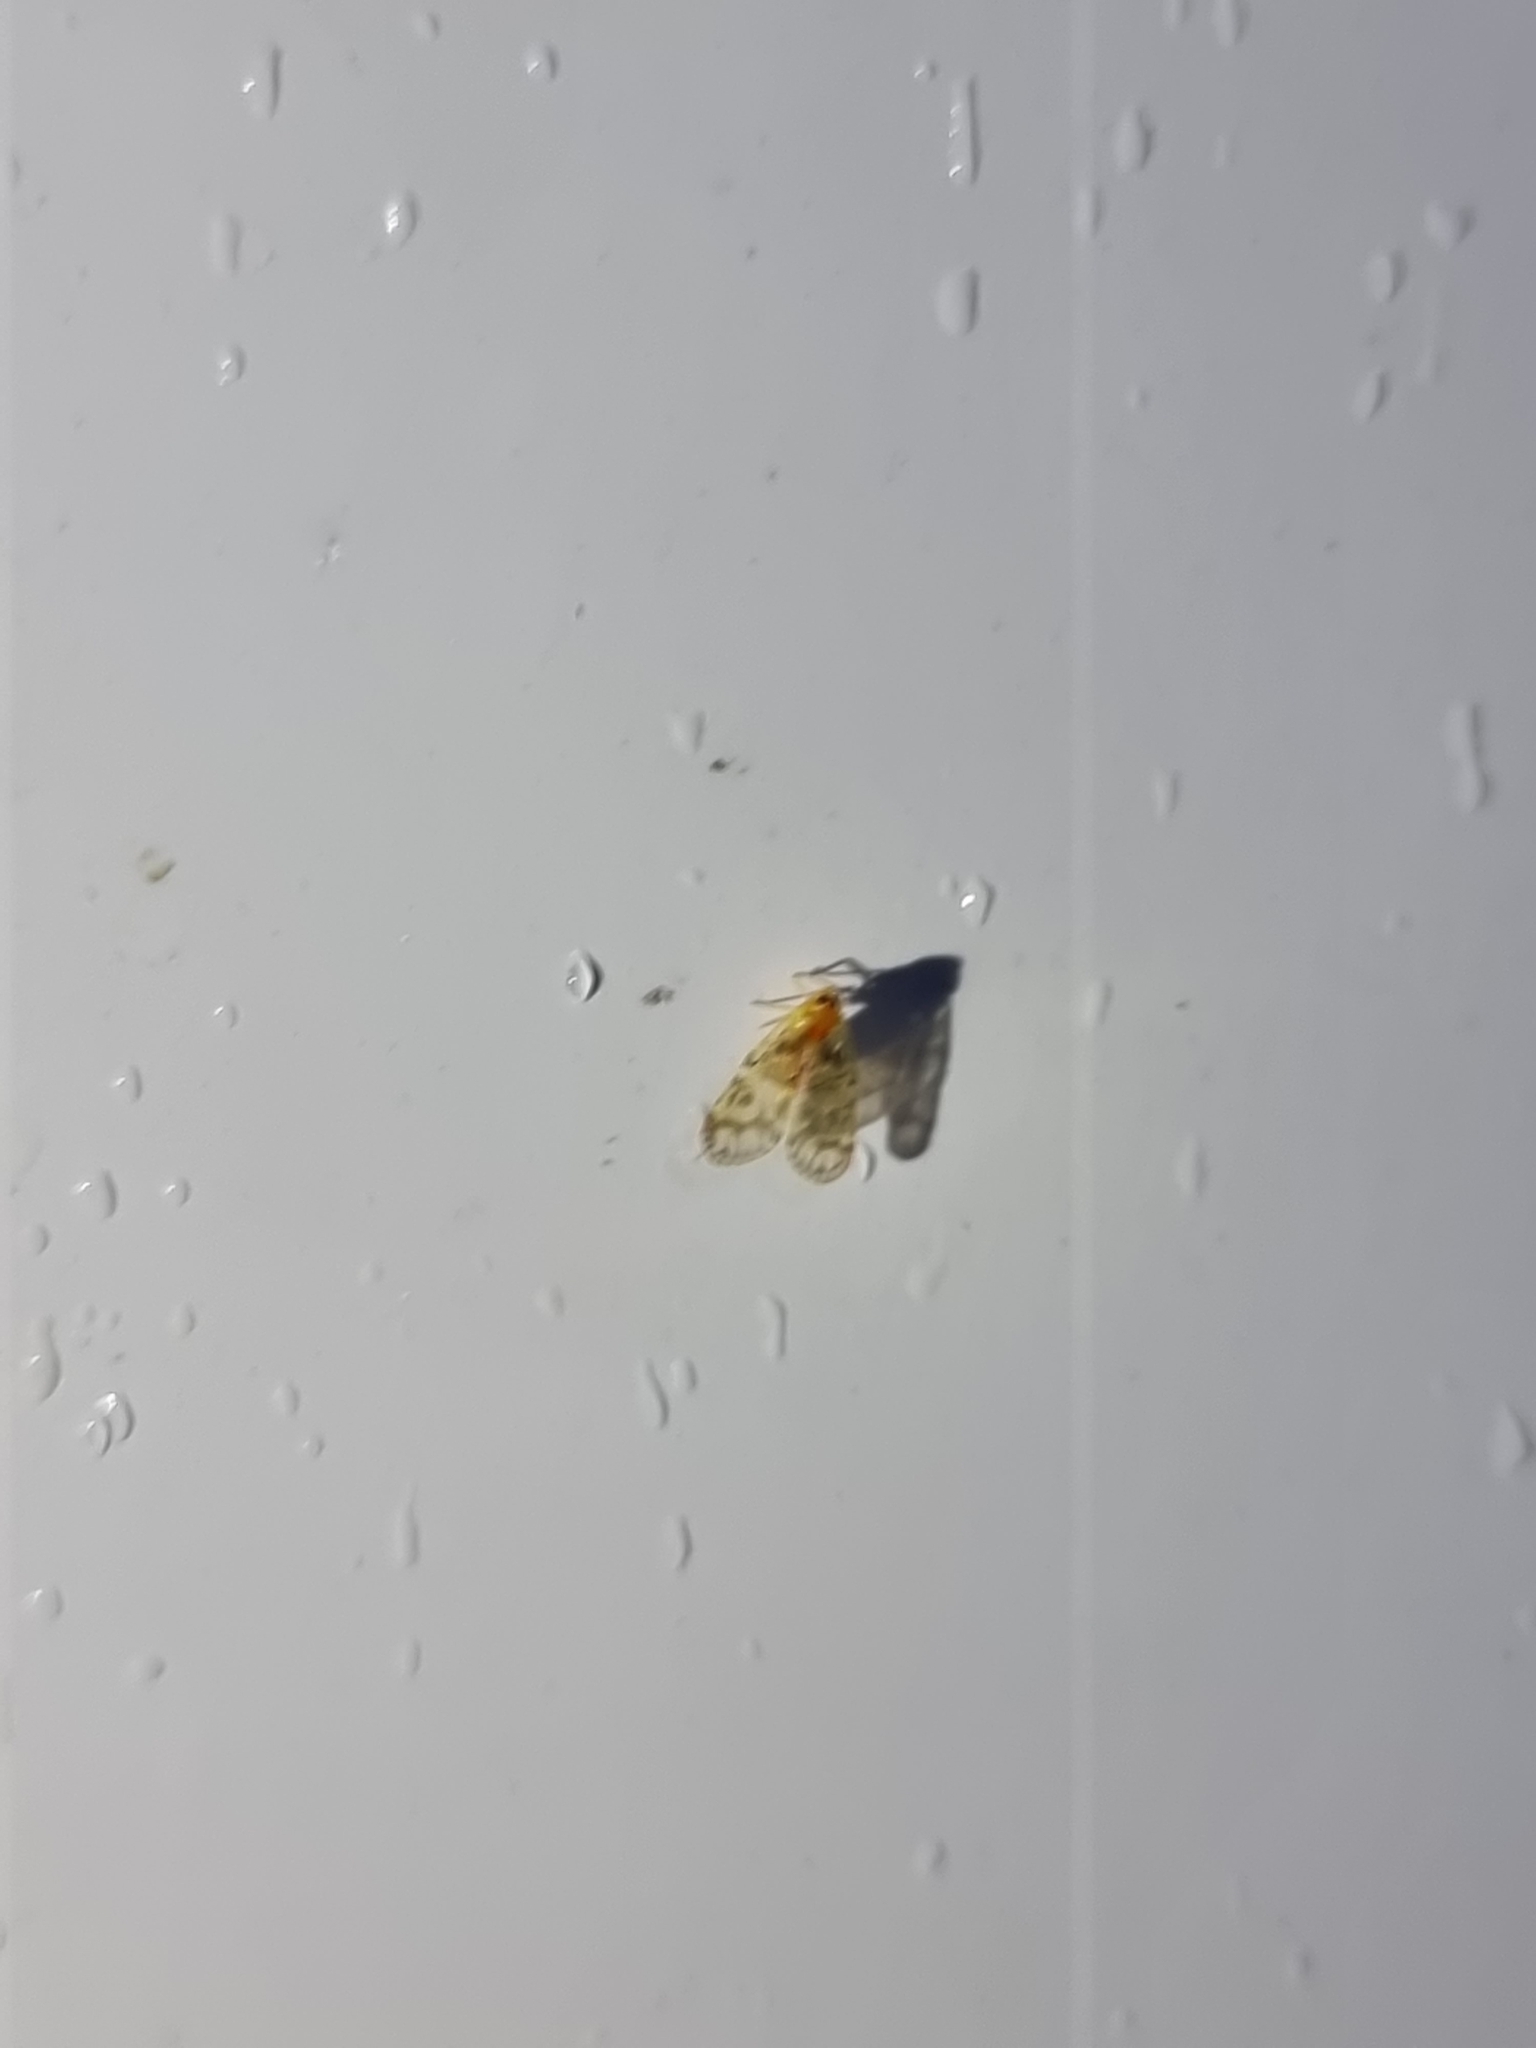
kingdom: Animalia
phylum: Arthropoda
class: Insecta
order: Hemiptera
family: Derbidae
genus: Saccharodite
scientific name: Saccharodite chrysonoe
